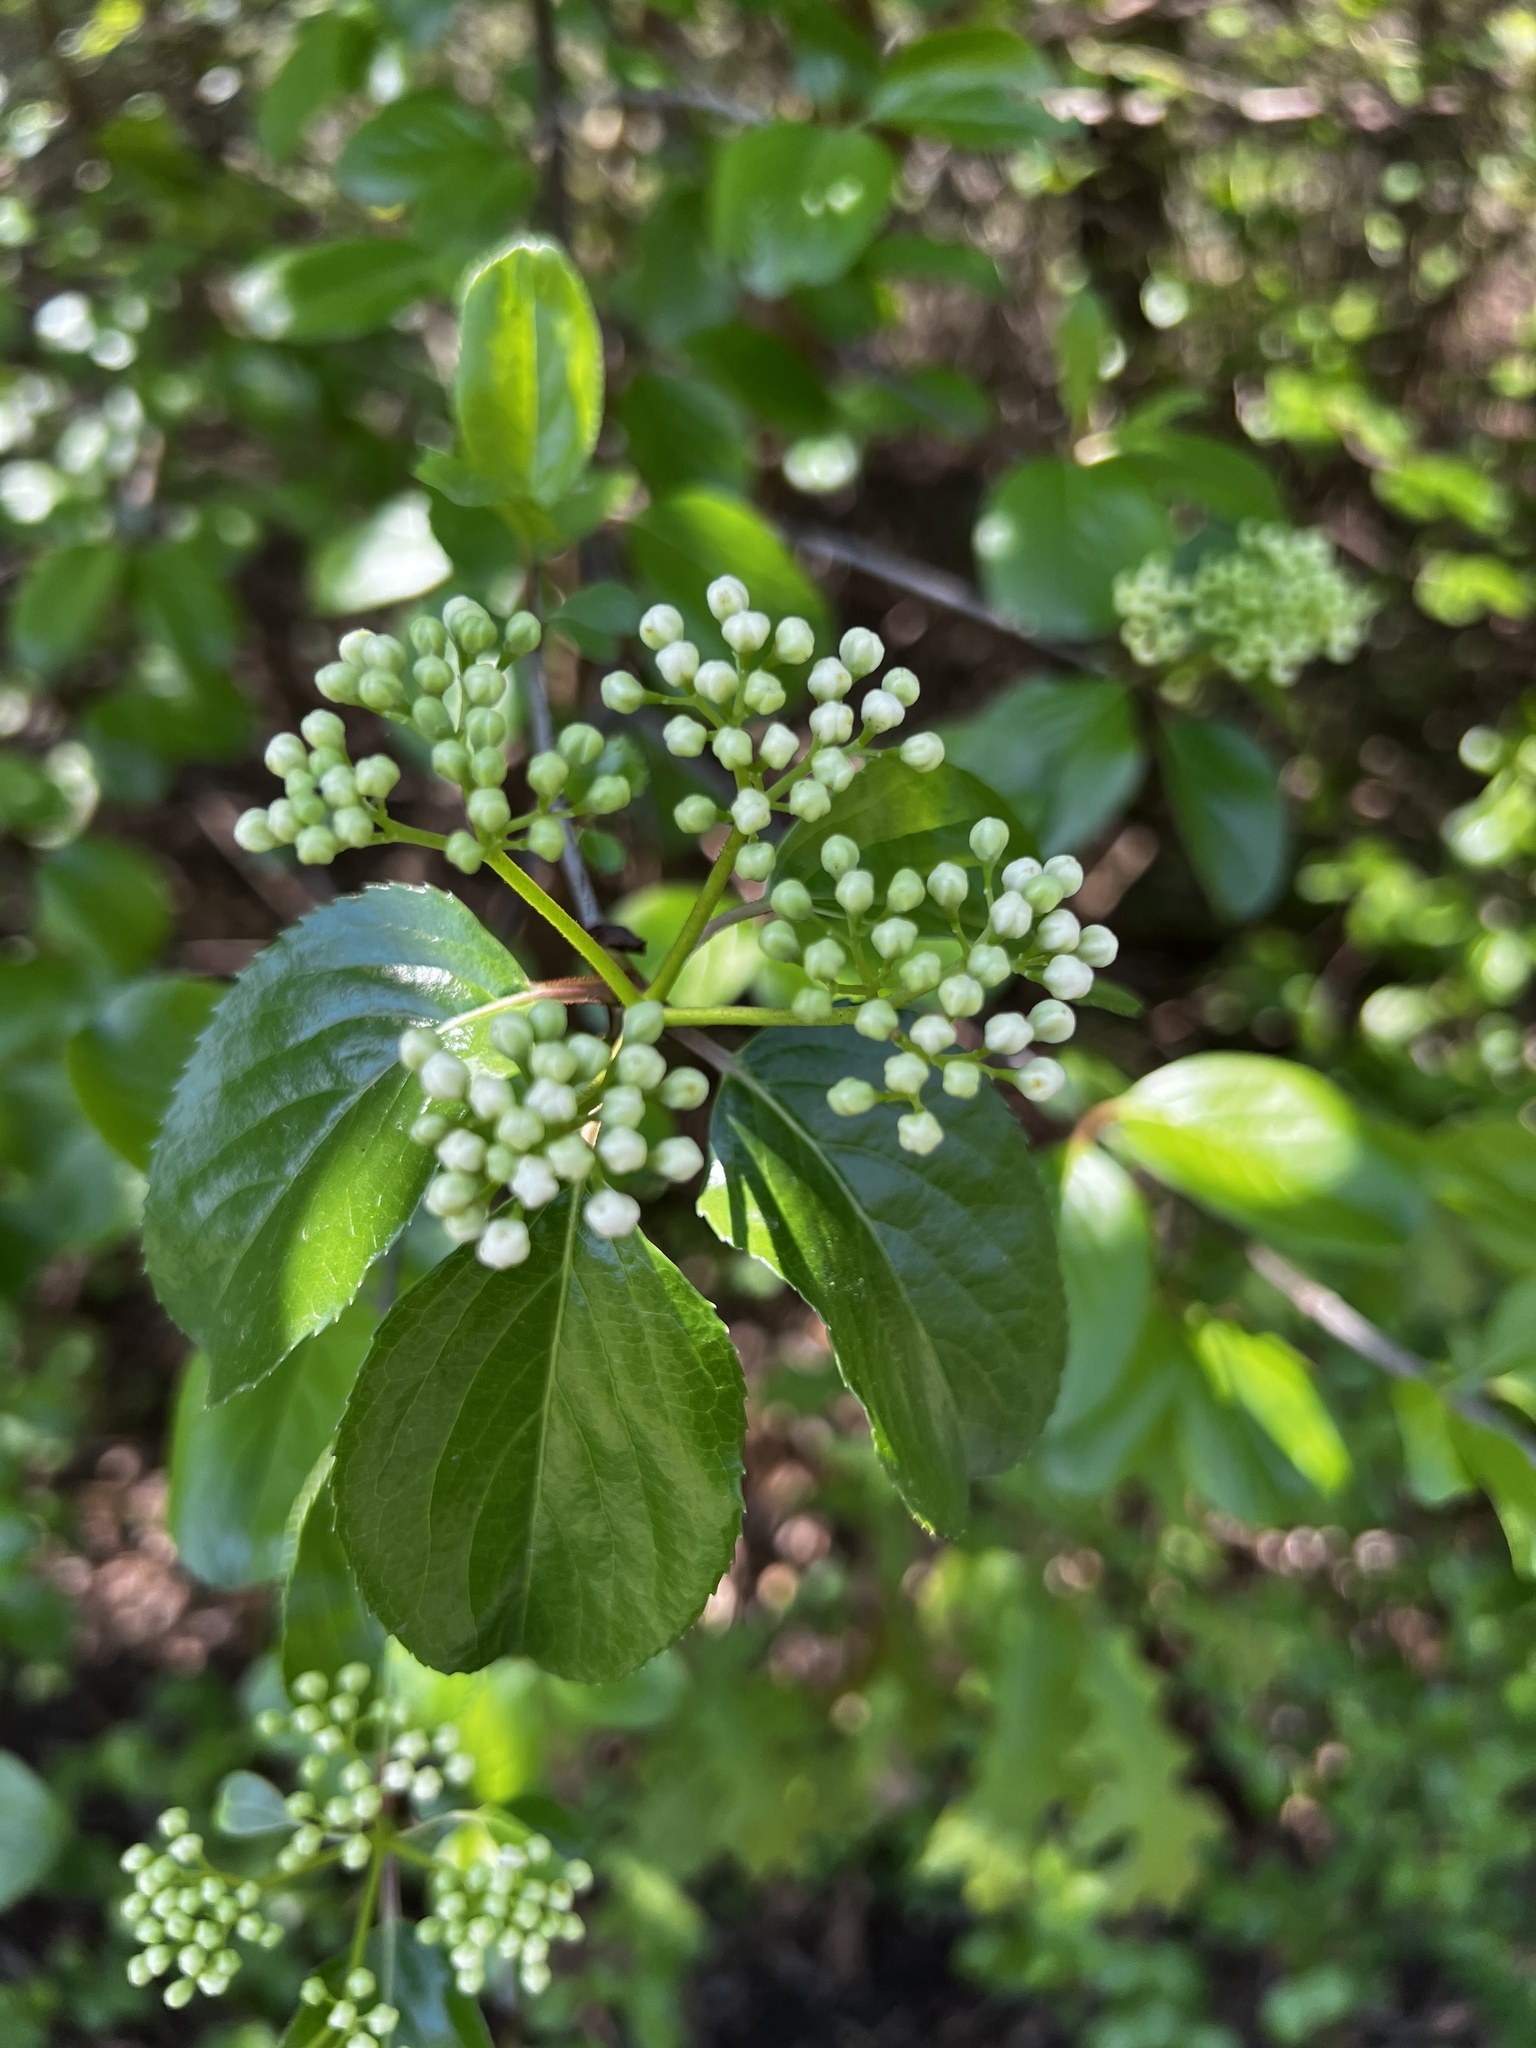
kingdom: Plantae
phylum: Tracheophyta
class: Magnoliopsida
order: Dipsacales
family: Viburnaceae
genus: Viburnum
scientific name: Viburnum rufidulum
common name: Blue haw
